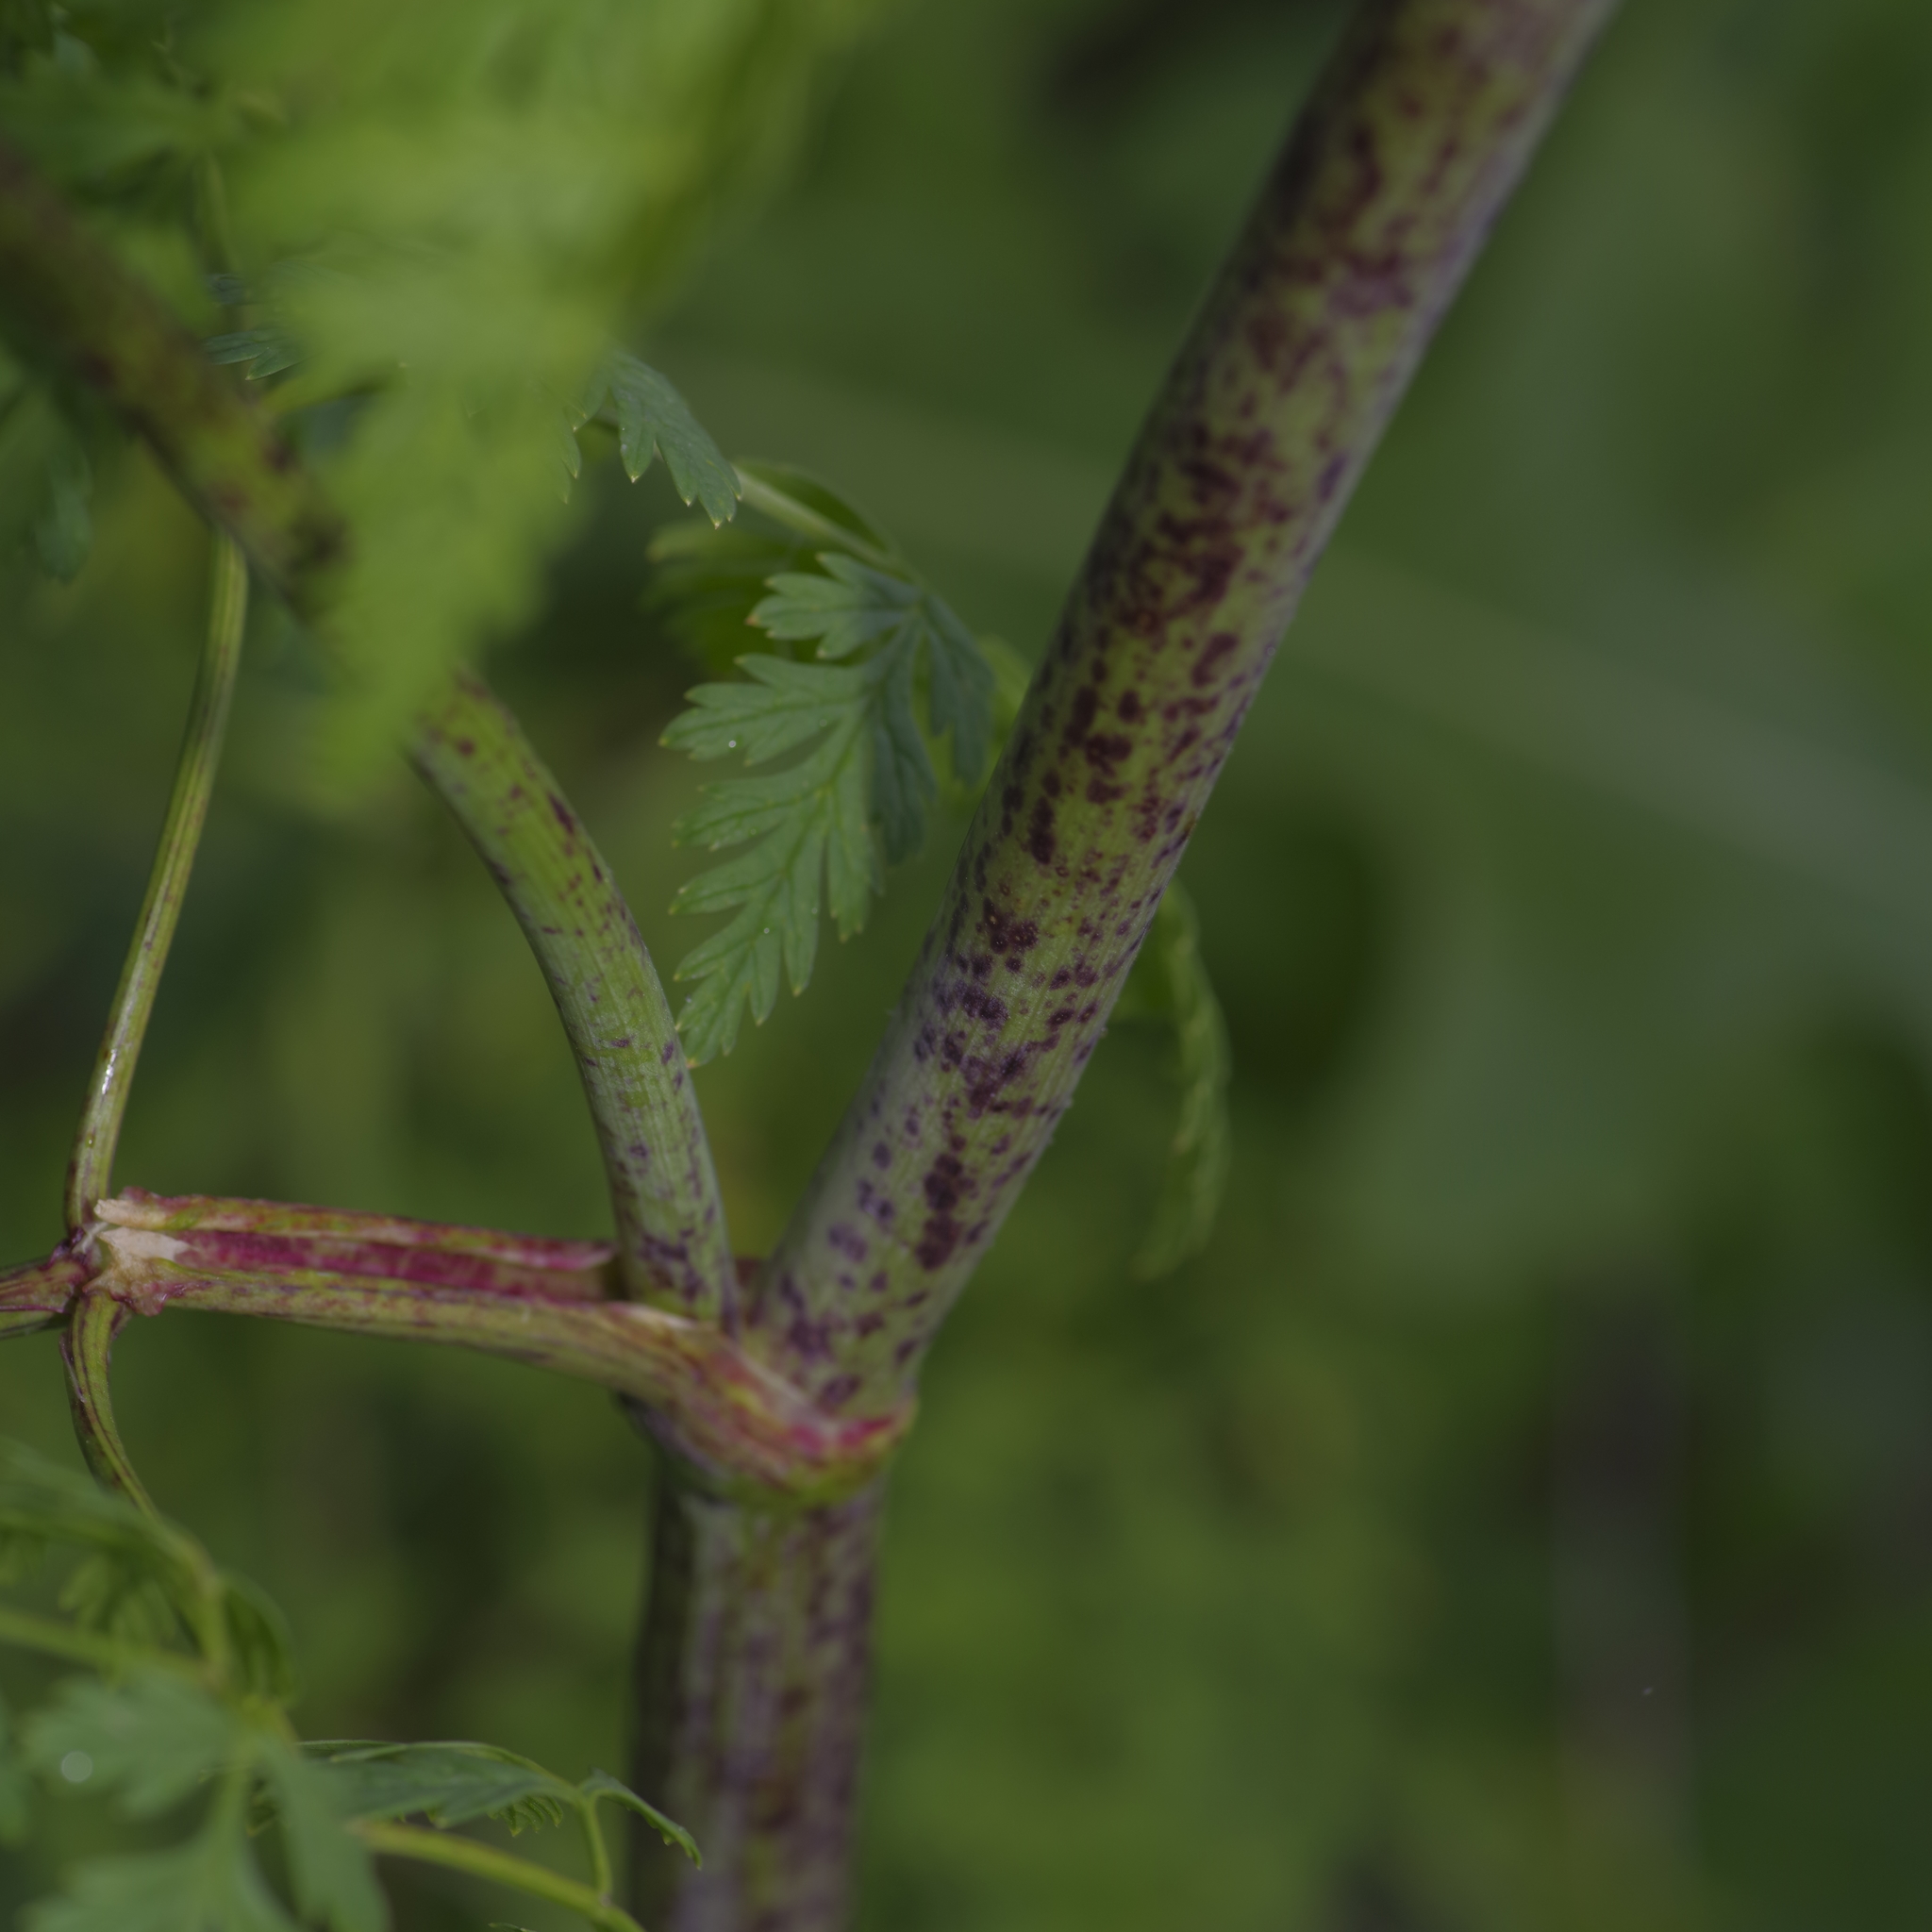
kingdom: Plantae
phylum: Tracheophyta
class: Magnoliopsida
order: Apiales
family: Apiaceae
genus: Conium
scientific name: Conium maculatum
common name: Hemlock
